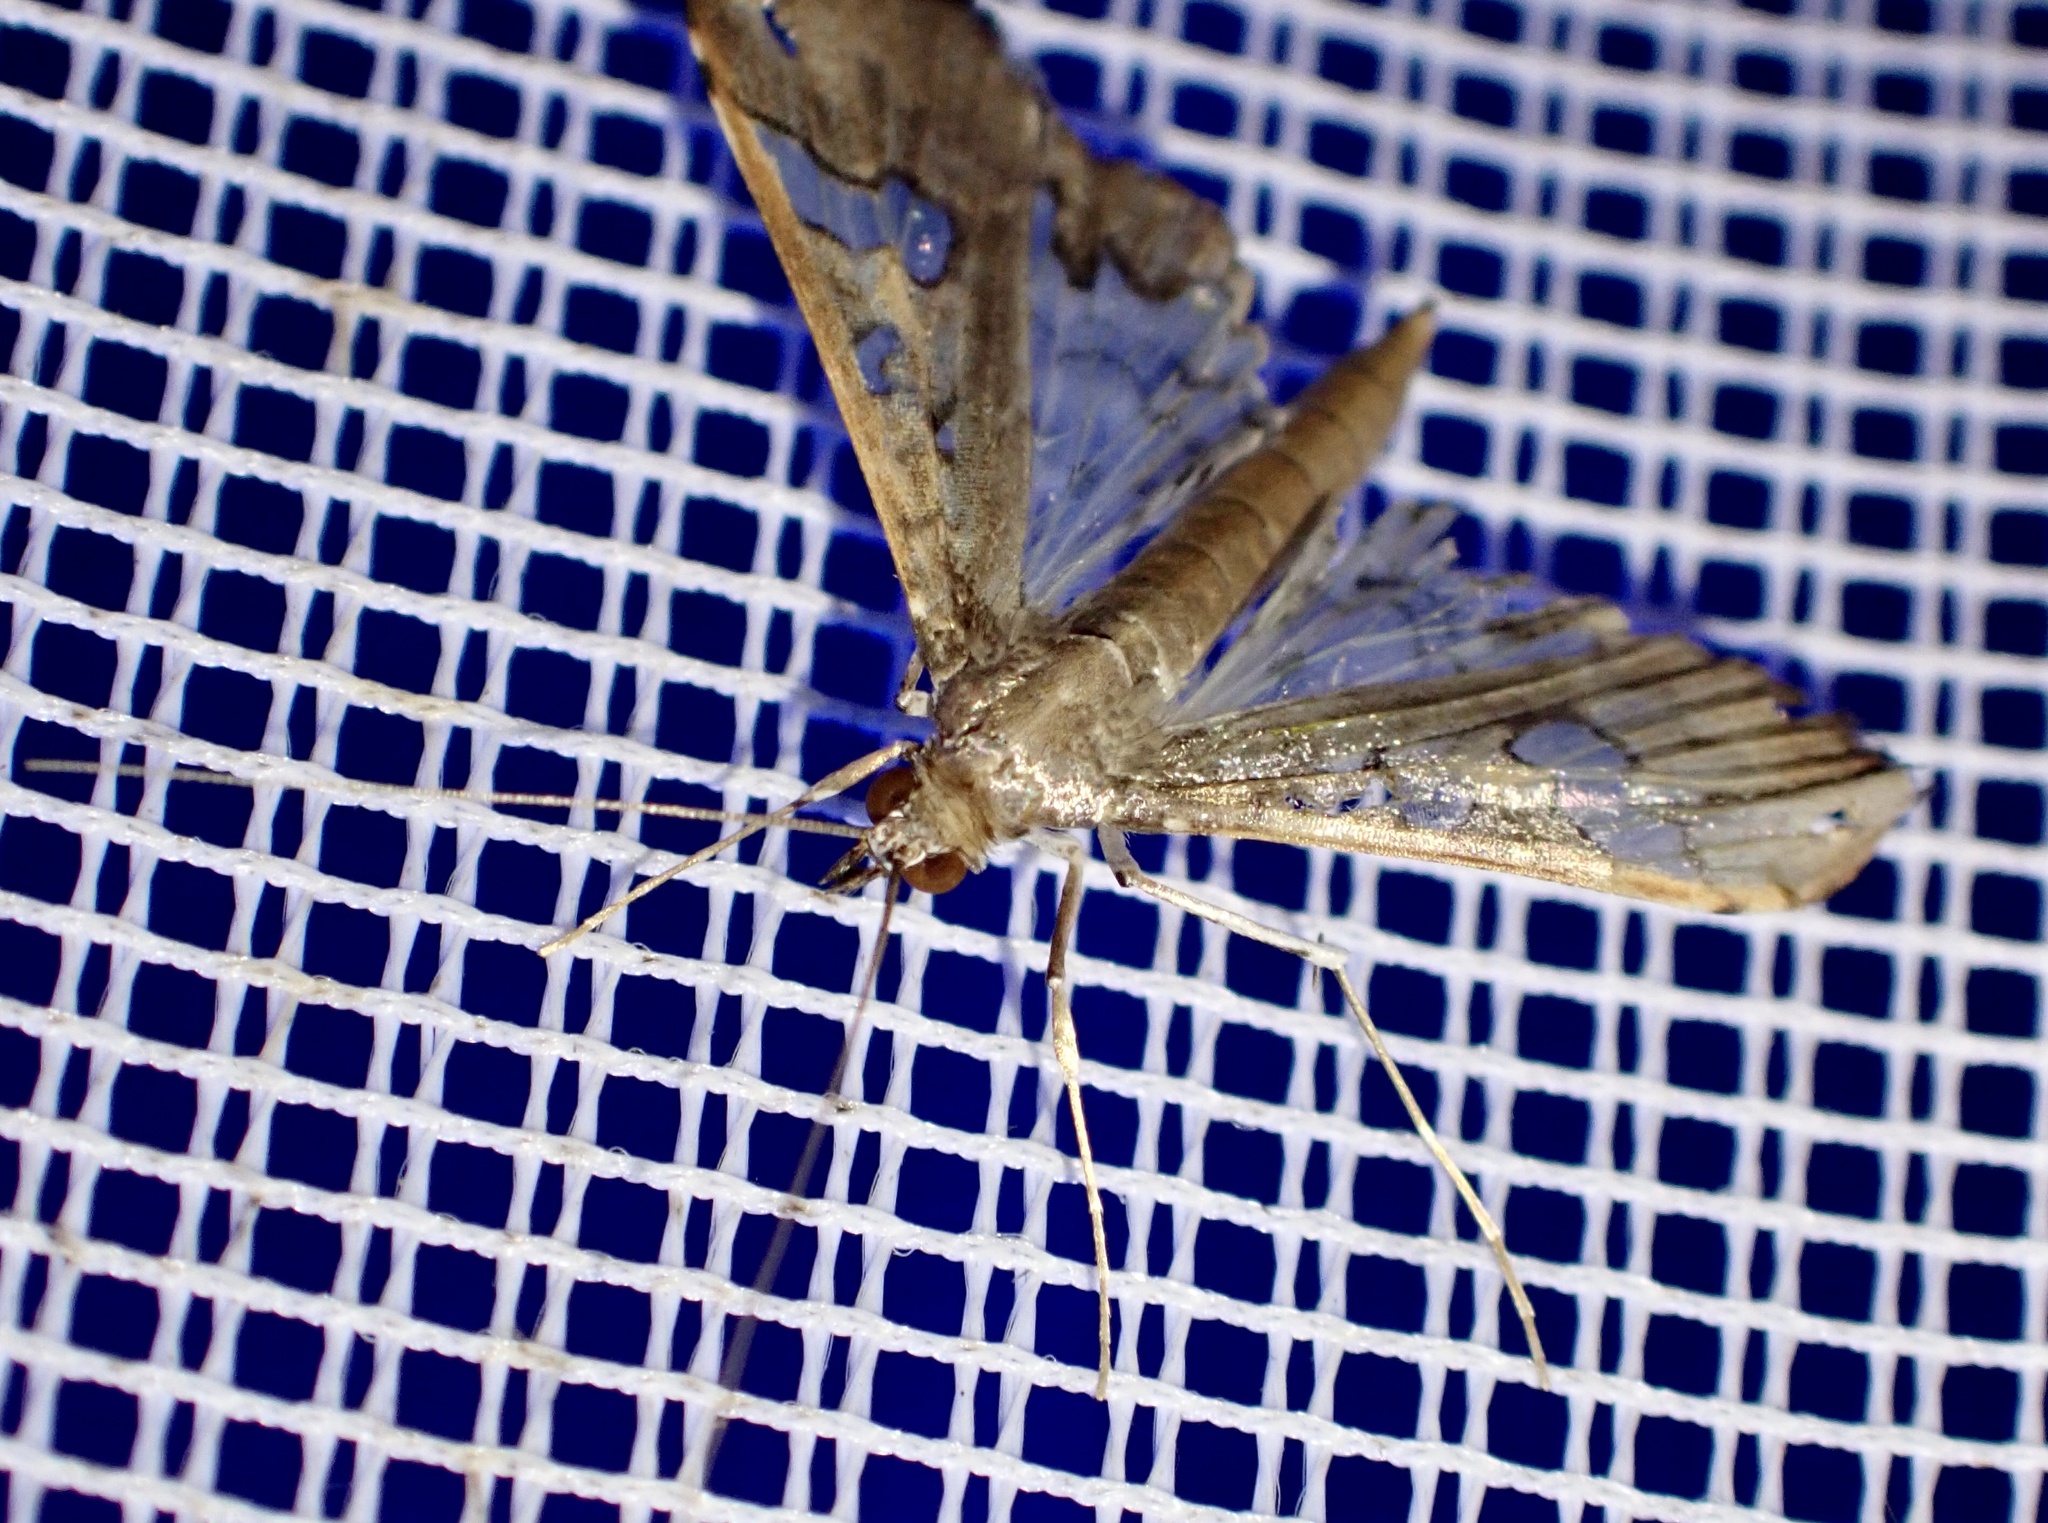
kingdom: Animalia
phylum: Arthropoda
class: Insecta
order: Lepidoptera
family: Crambidae
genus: Maruca
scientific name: Maruca vitrata
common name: Maruca pod borer
